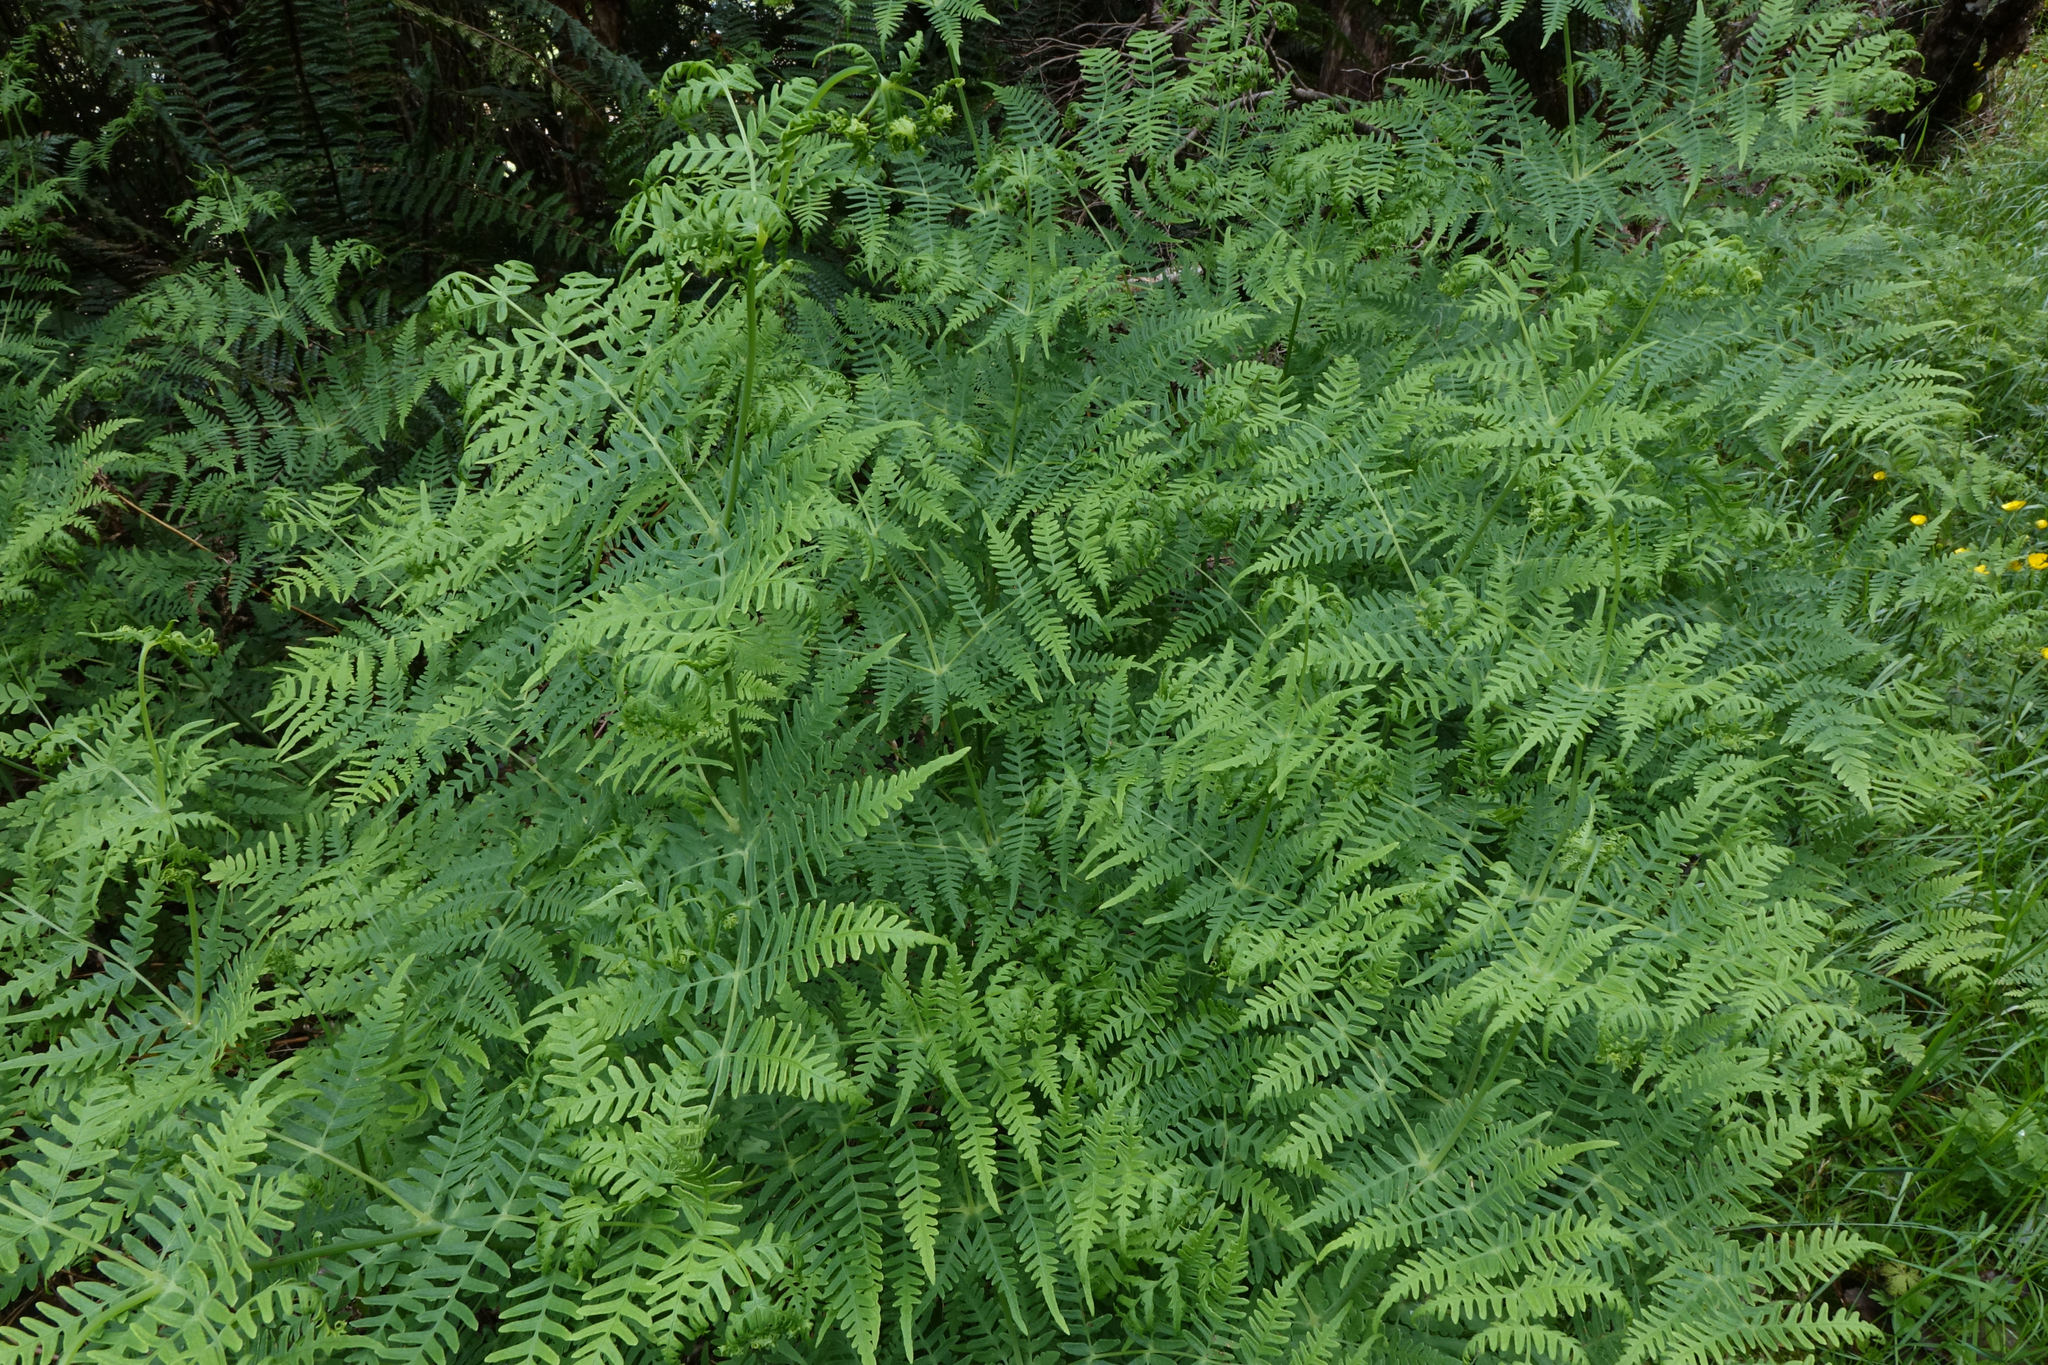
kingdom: Plantae
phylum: Tracheophyta
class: Polypodiopsida
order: Polypodiales
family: Dennstaedtiaceae
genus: Histiopteris
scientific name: Histiopteris incisa
